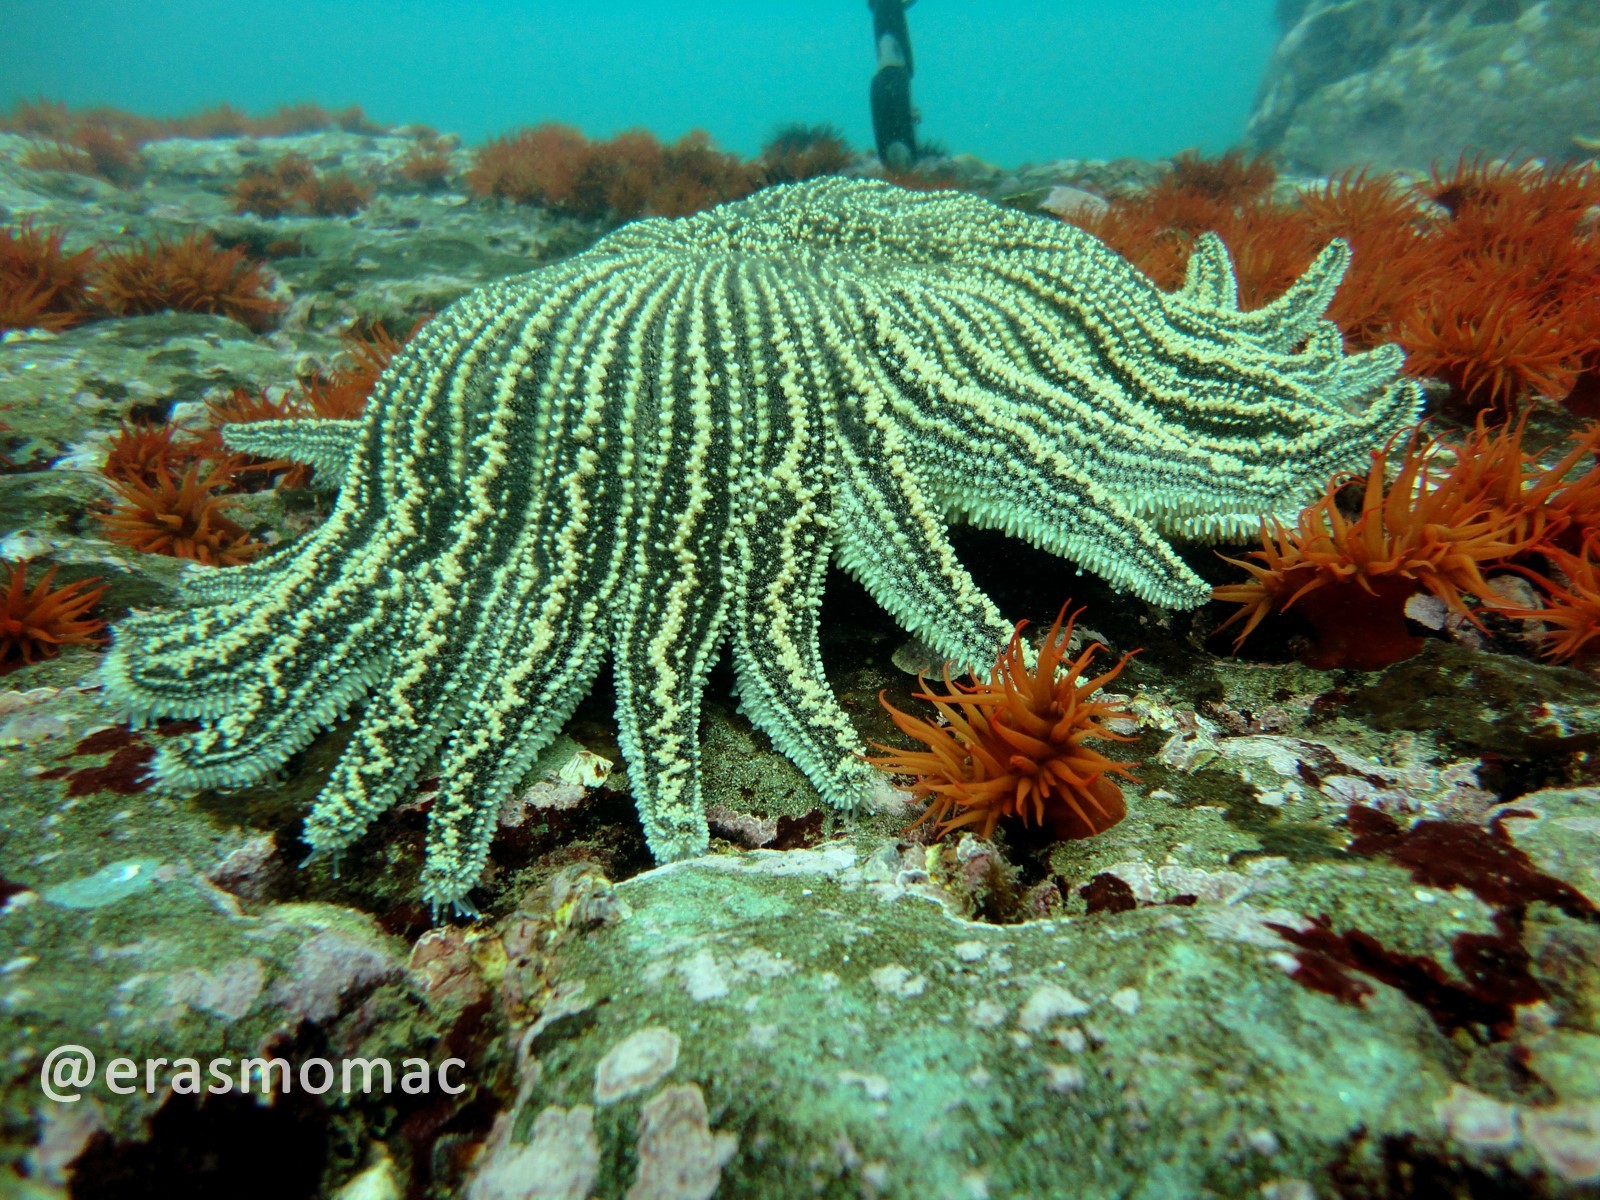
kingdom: Animalia
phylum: Echinodermata
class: Asteroidea
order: Forcipulatida
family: Heliasteridae
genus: Heliaster
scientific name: Heliaster helianthus
